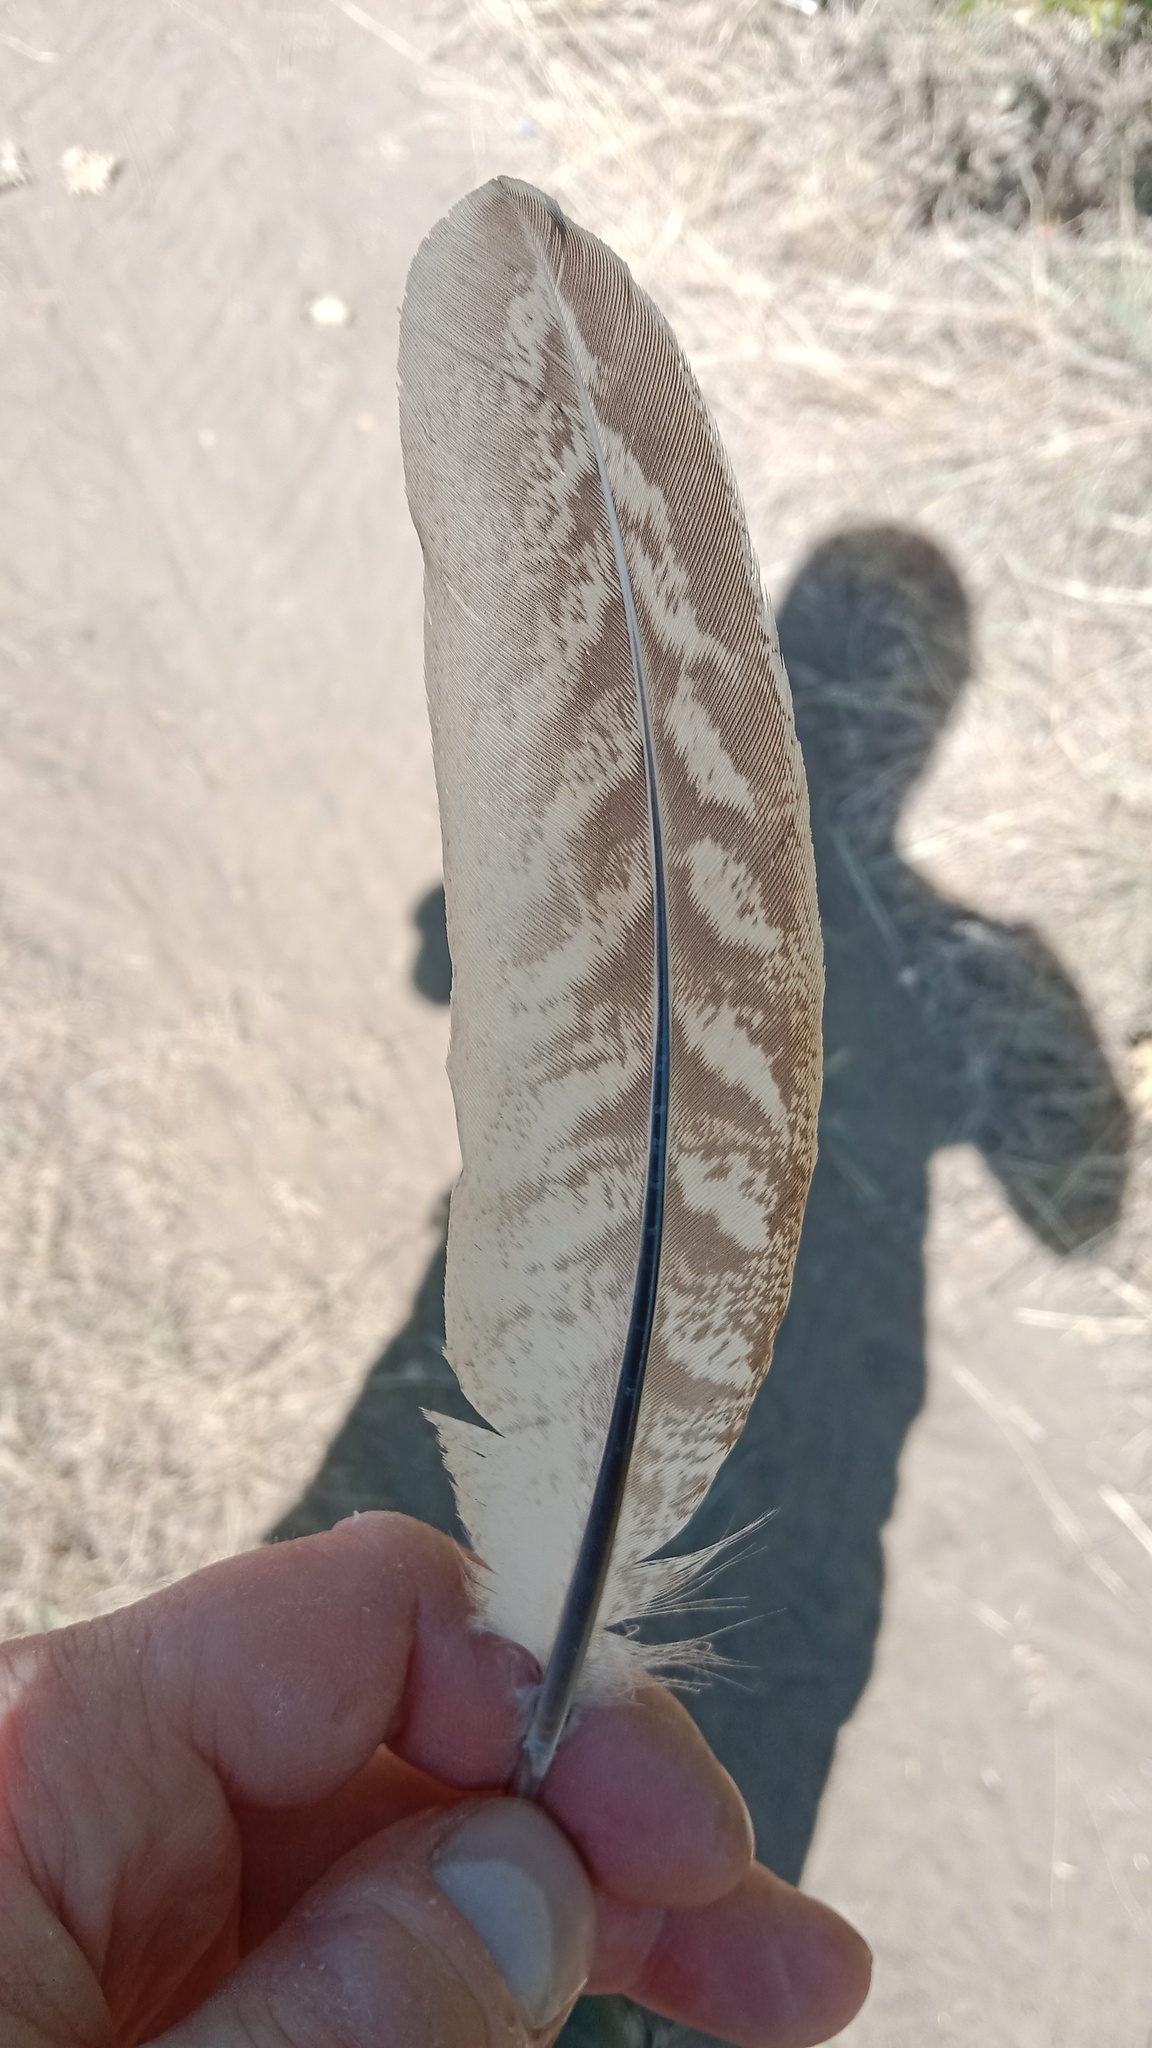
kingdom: Animalia
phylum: Chordata
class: Aves
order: Galliformes
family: Phasianidae
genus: Phasianus
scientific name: Phasianus colchicus
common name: Common pheasant
